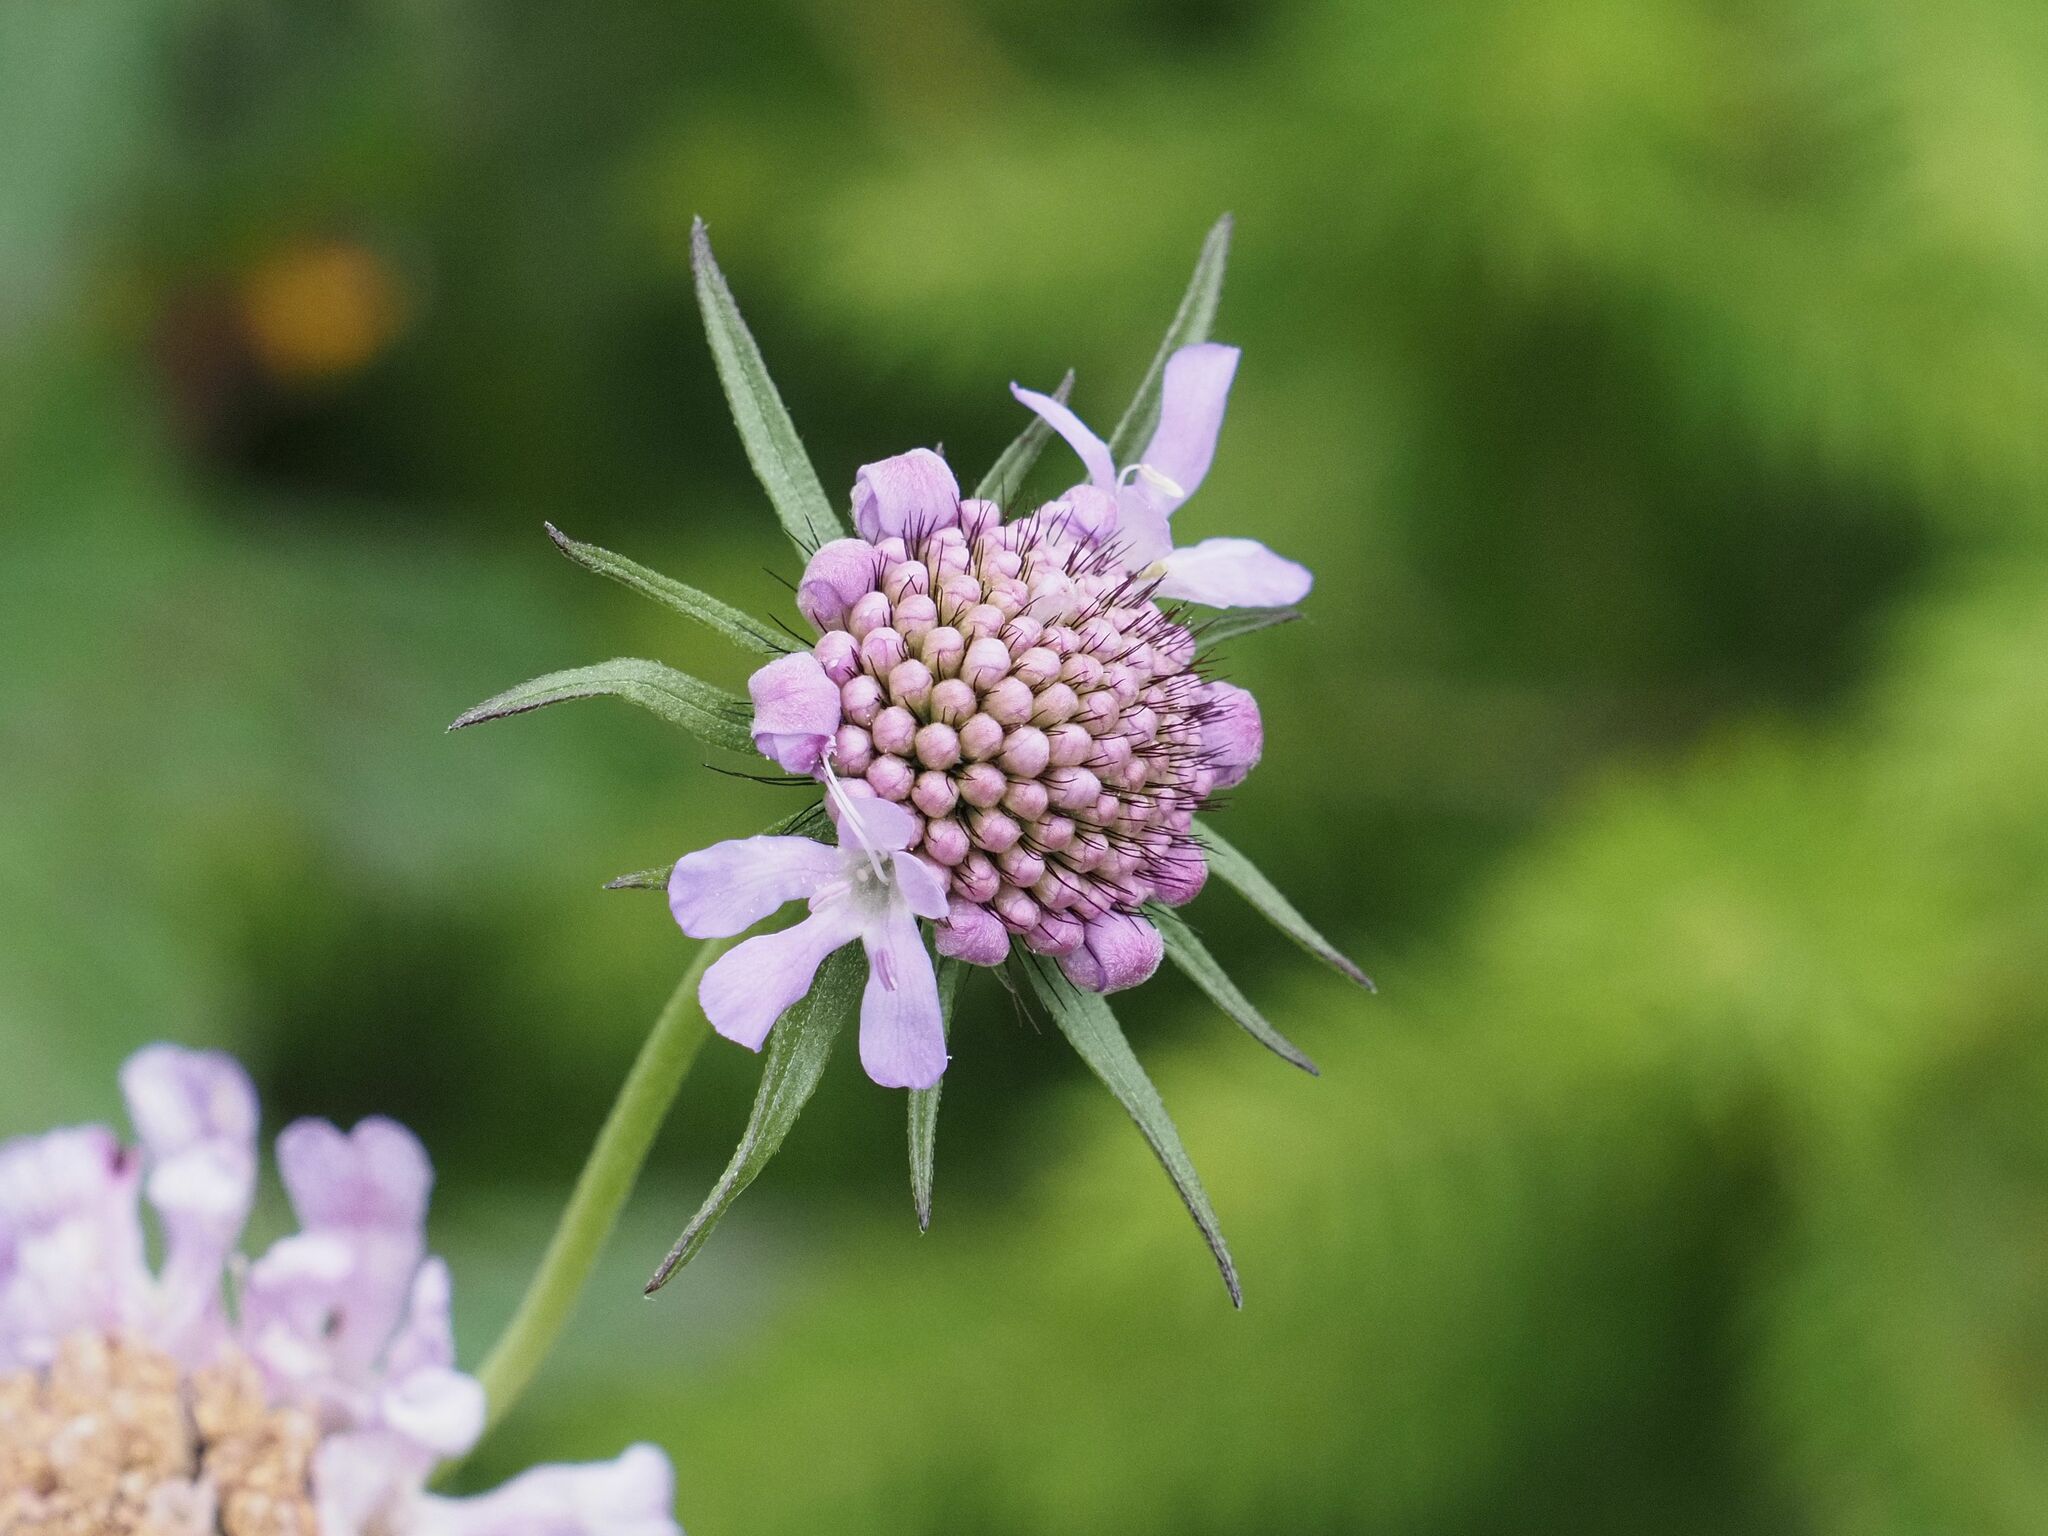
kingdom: Plantae
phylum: Tracheophyta
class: Magnoliopsida
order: Dipsacales
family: Caprifoliaceae
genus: Scabiosa
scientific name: Scabiosa lucida
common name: Shining scabious
